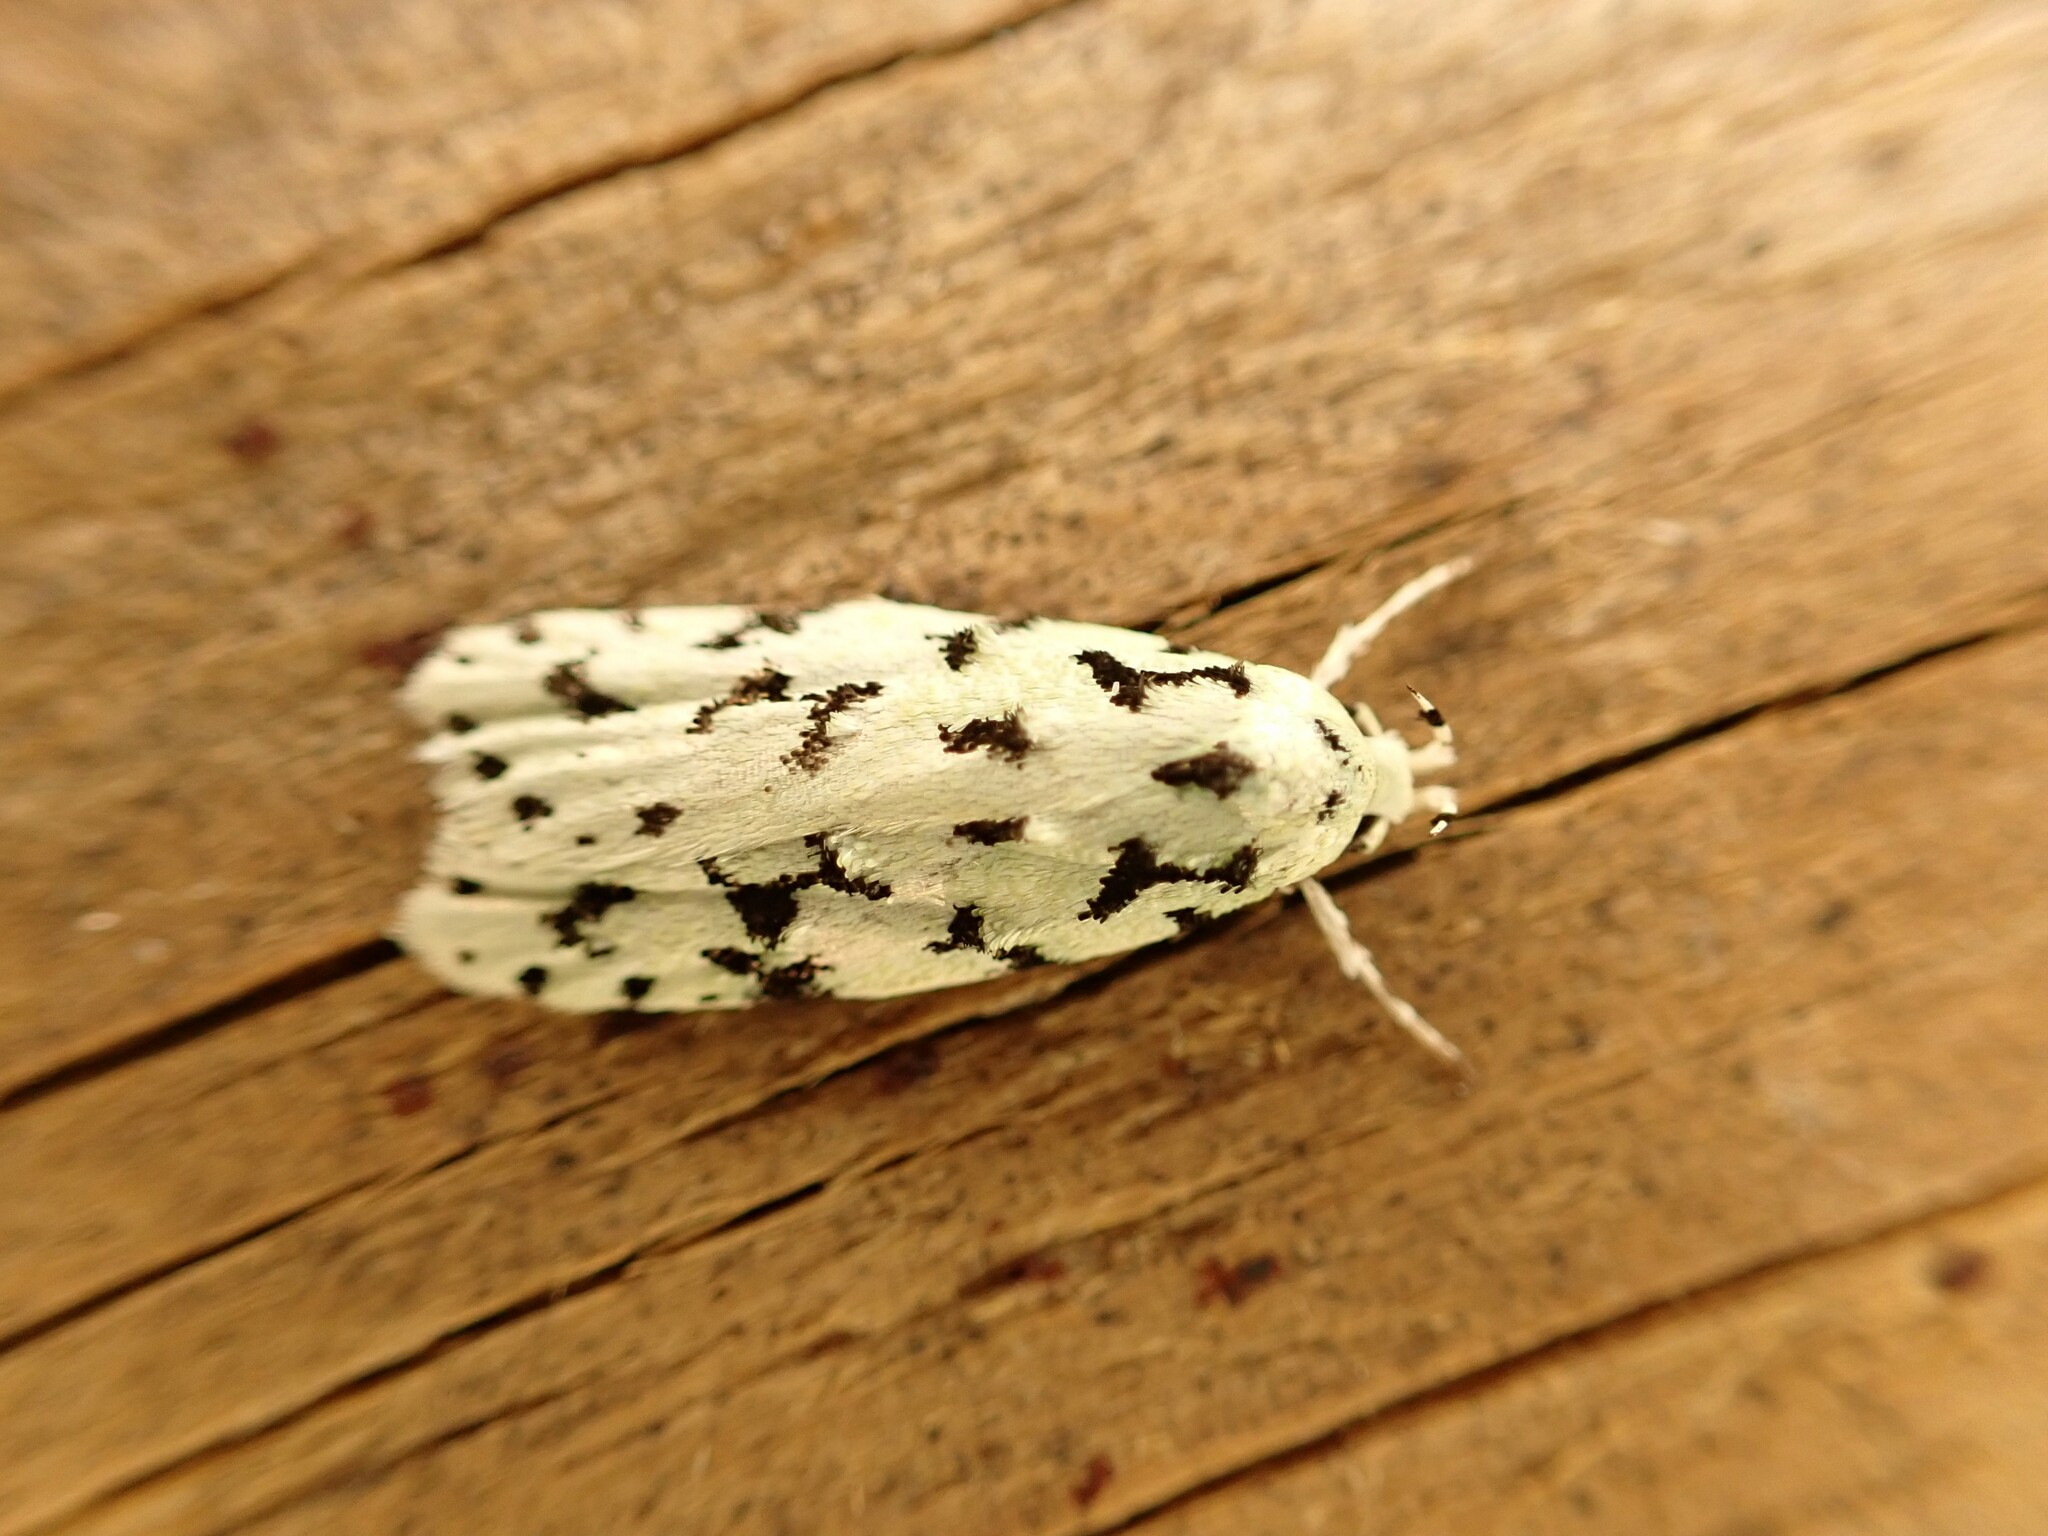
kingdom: Animalia
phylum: Arthropoda
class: Insecta
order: Lepidoptera
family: Oecophoridae
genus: Izatha
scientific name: Izatha huttoni
